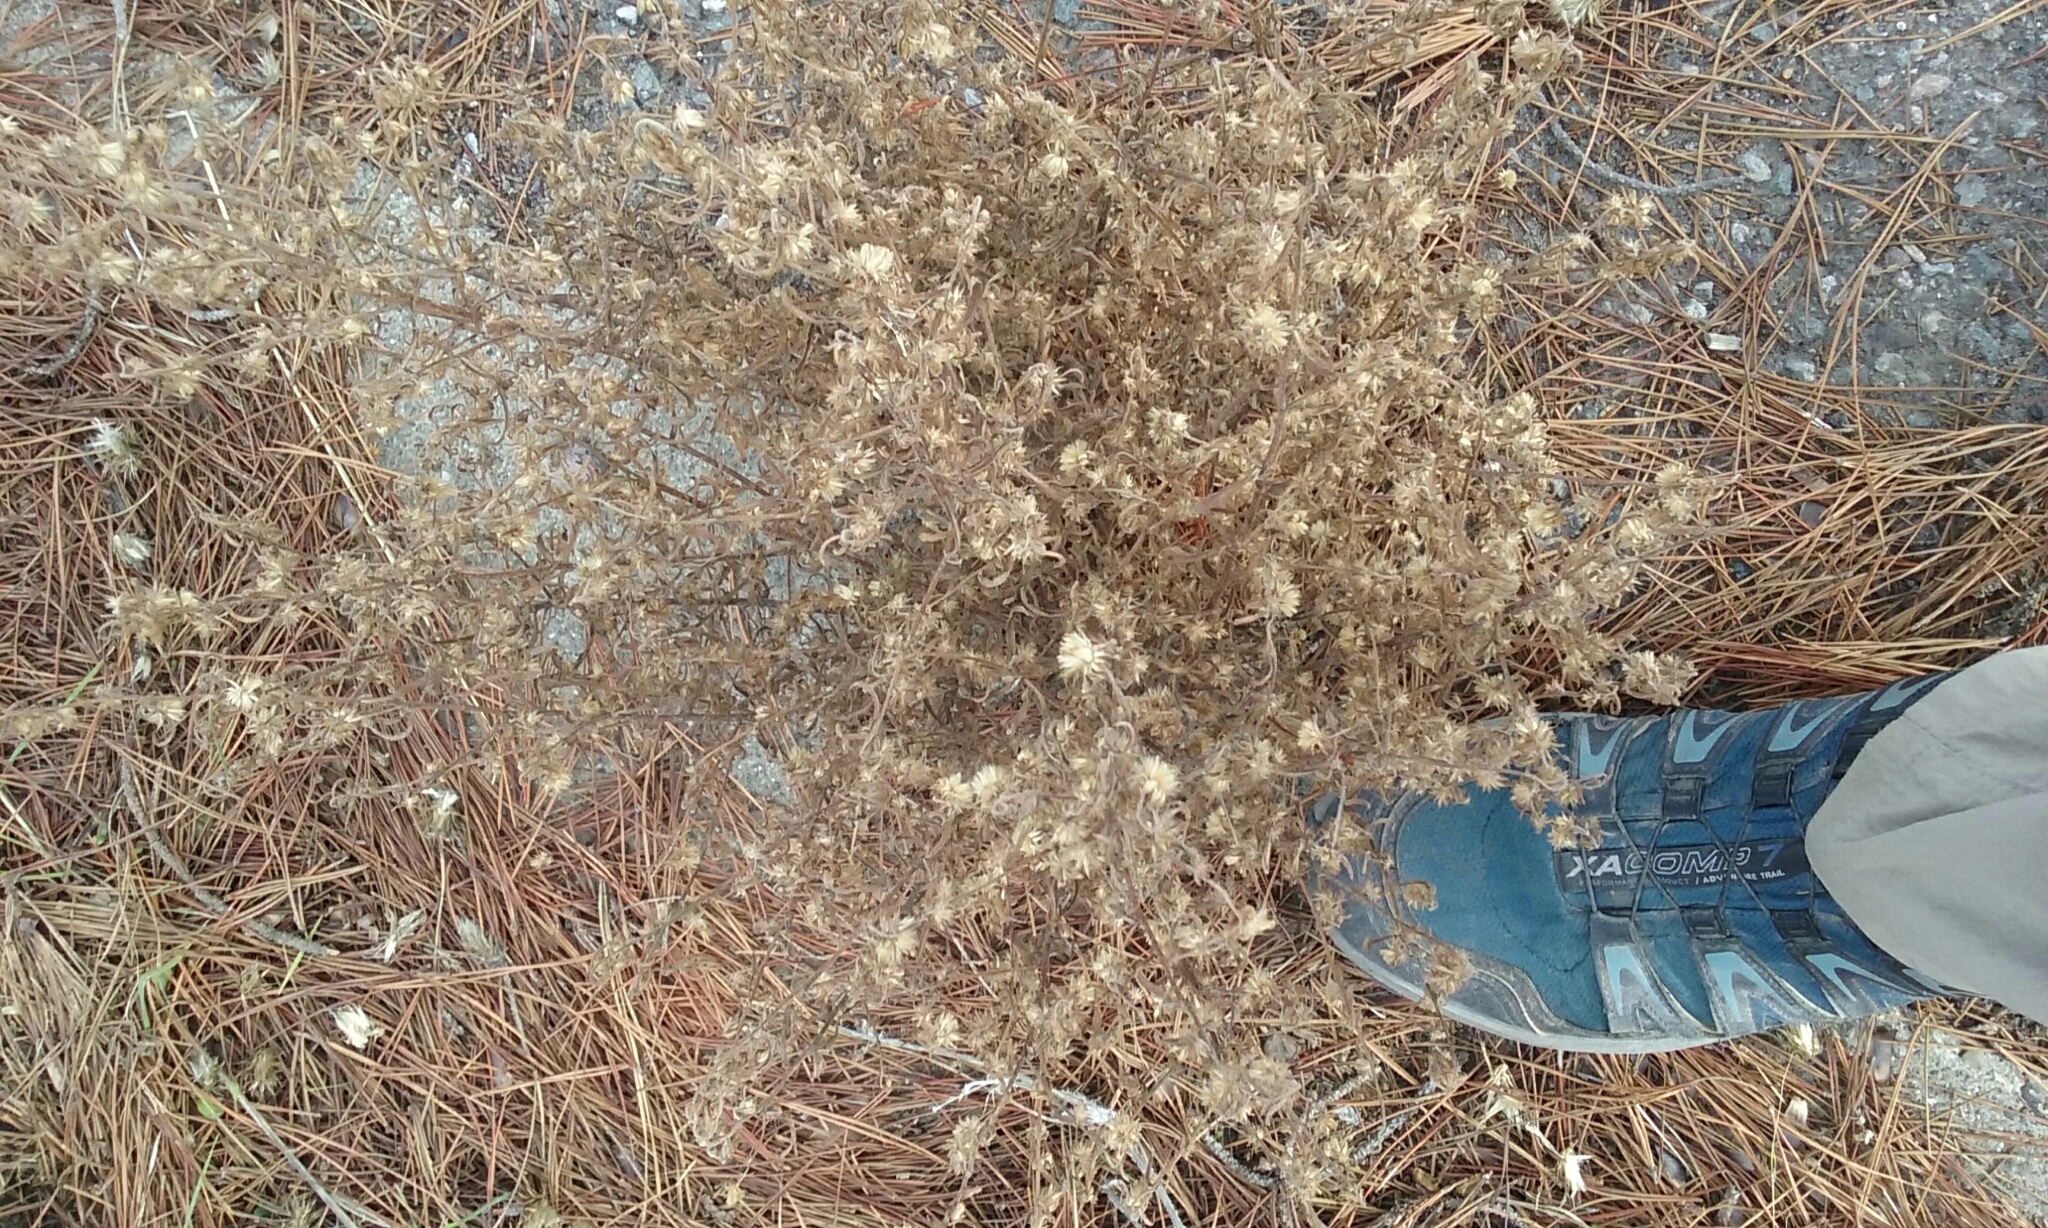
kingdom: Plantae
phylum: Tracheophyta
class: Magnoliopsida
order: Asterales
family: Asteraceae
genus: Dittrichia
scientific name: Dittrichia graveolens
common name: Stinking fleabane
